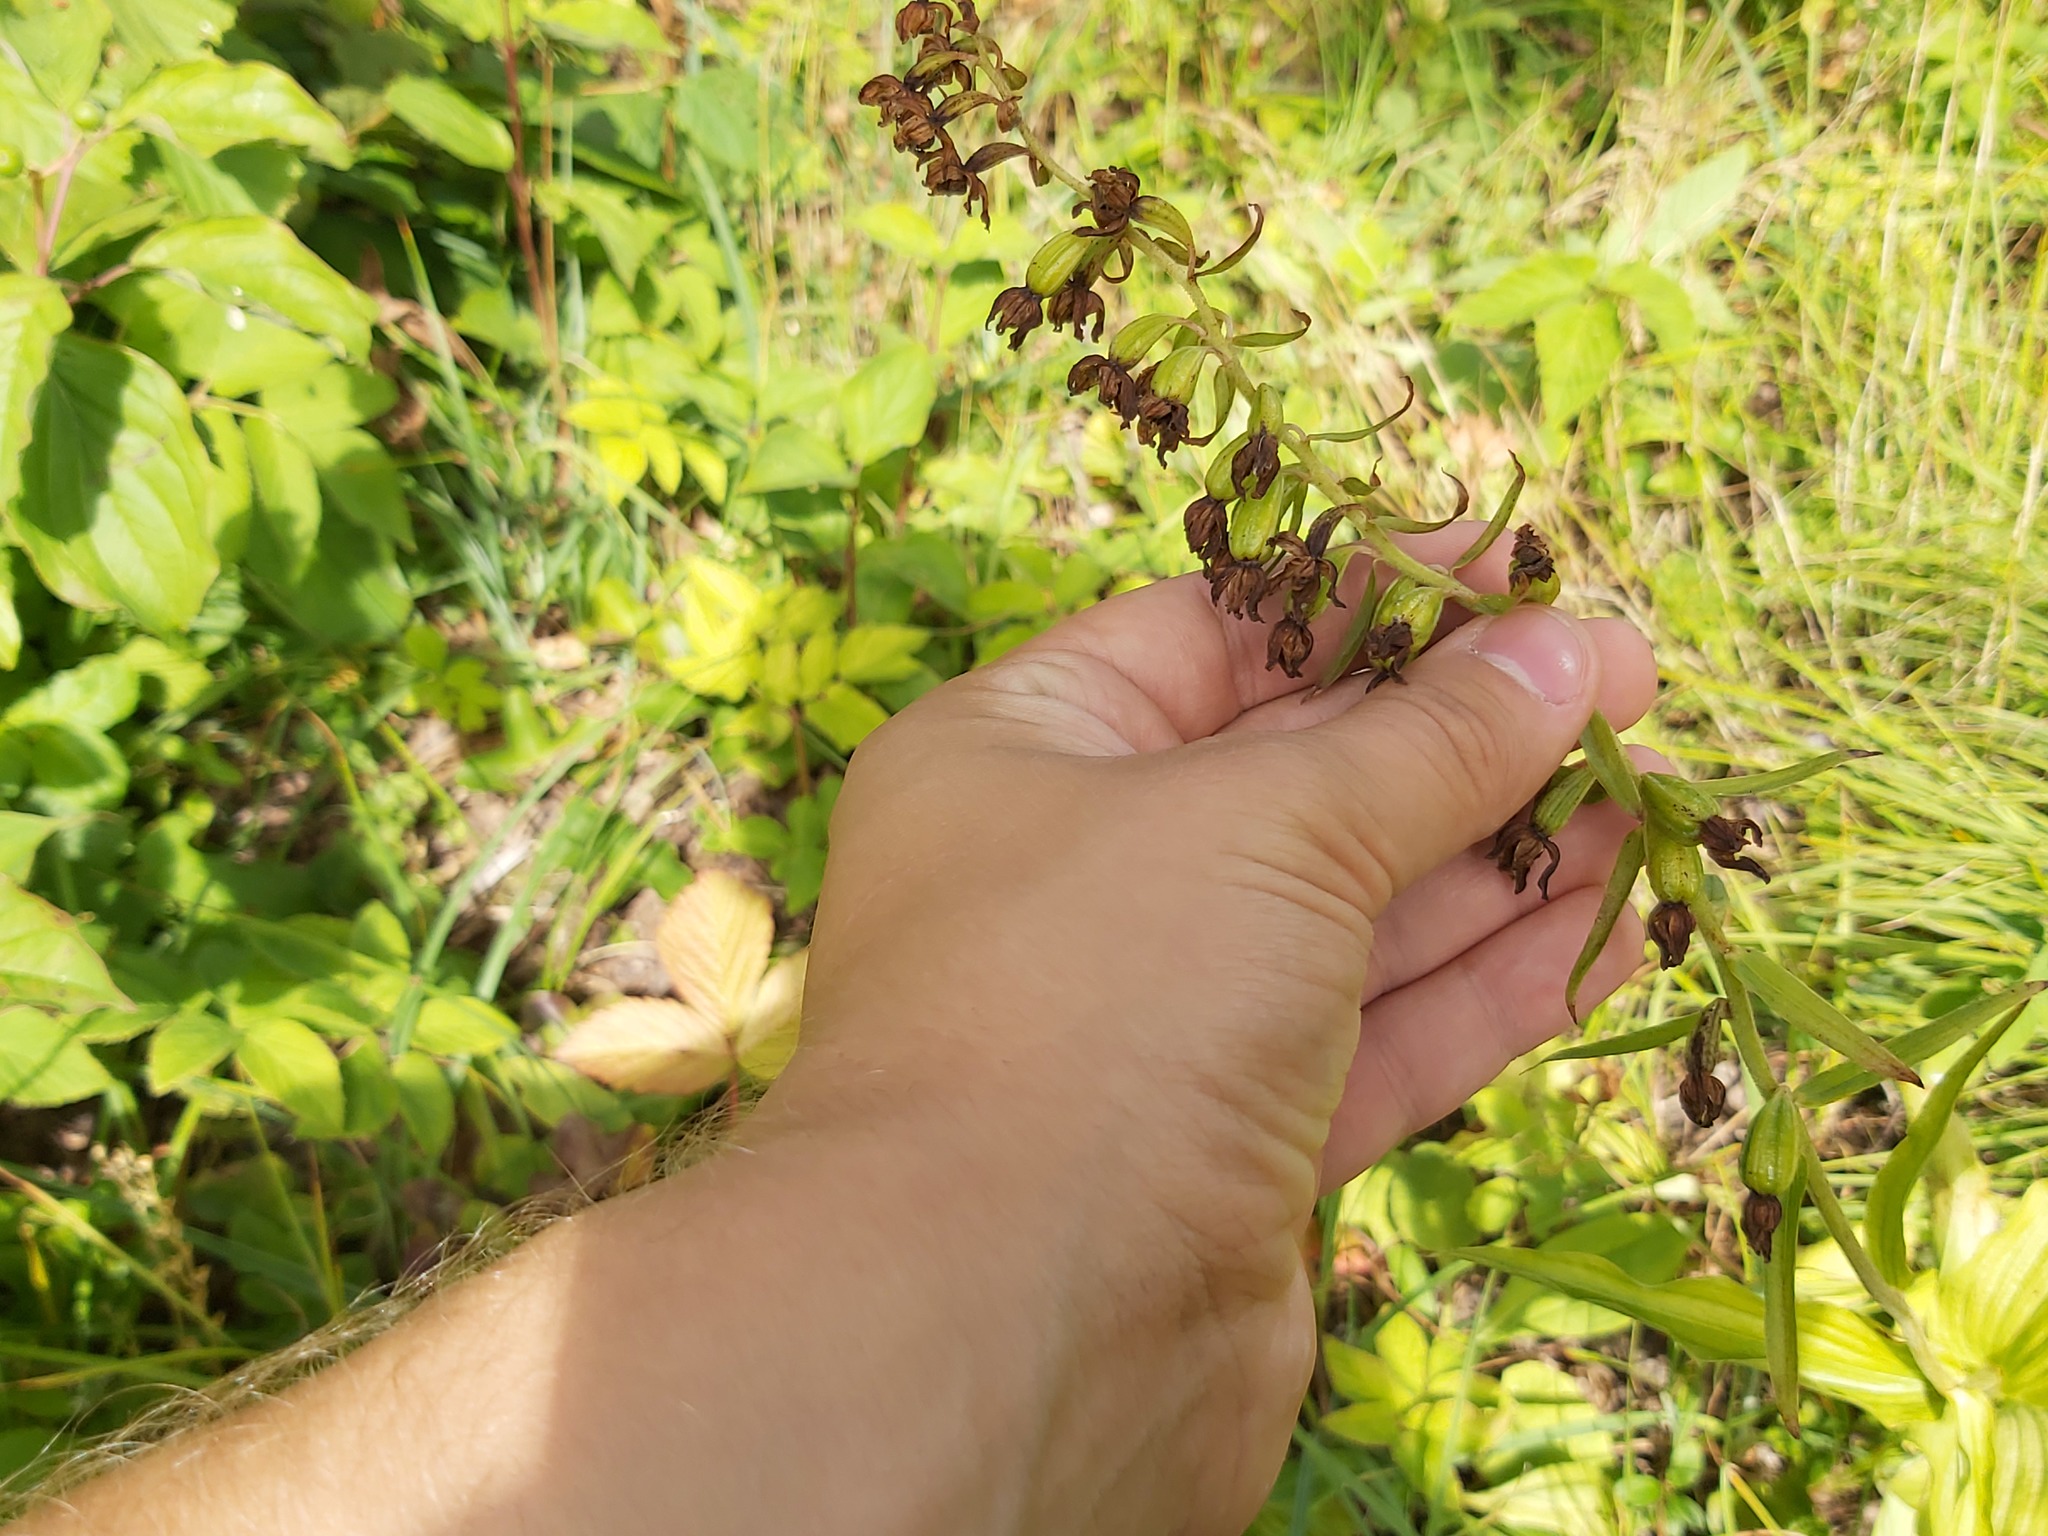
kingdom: Plantae
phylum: Tracheophyta
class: Liliopsida
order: Asparagales
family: Orchidaceae
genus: Epipactis
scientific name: Epipactis helleborine
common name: Broad-leaved helleborine
